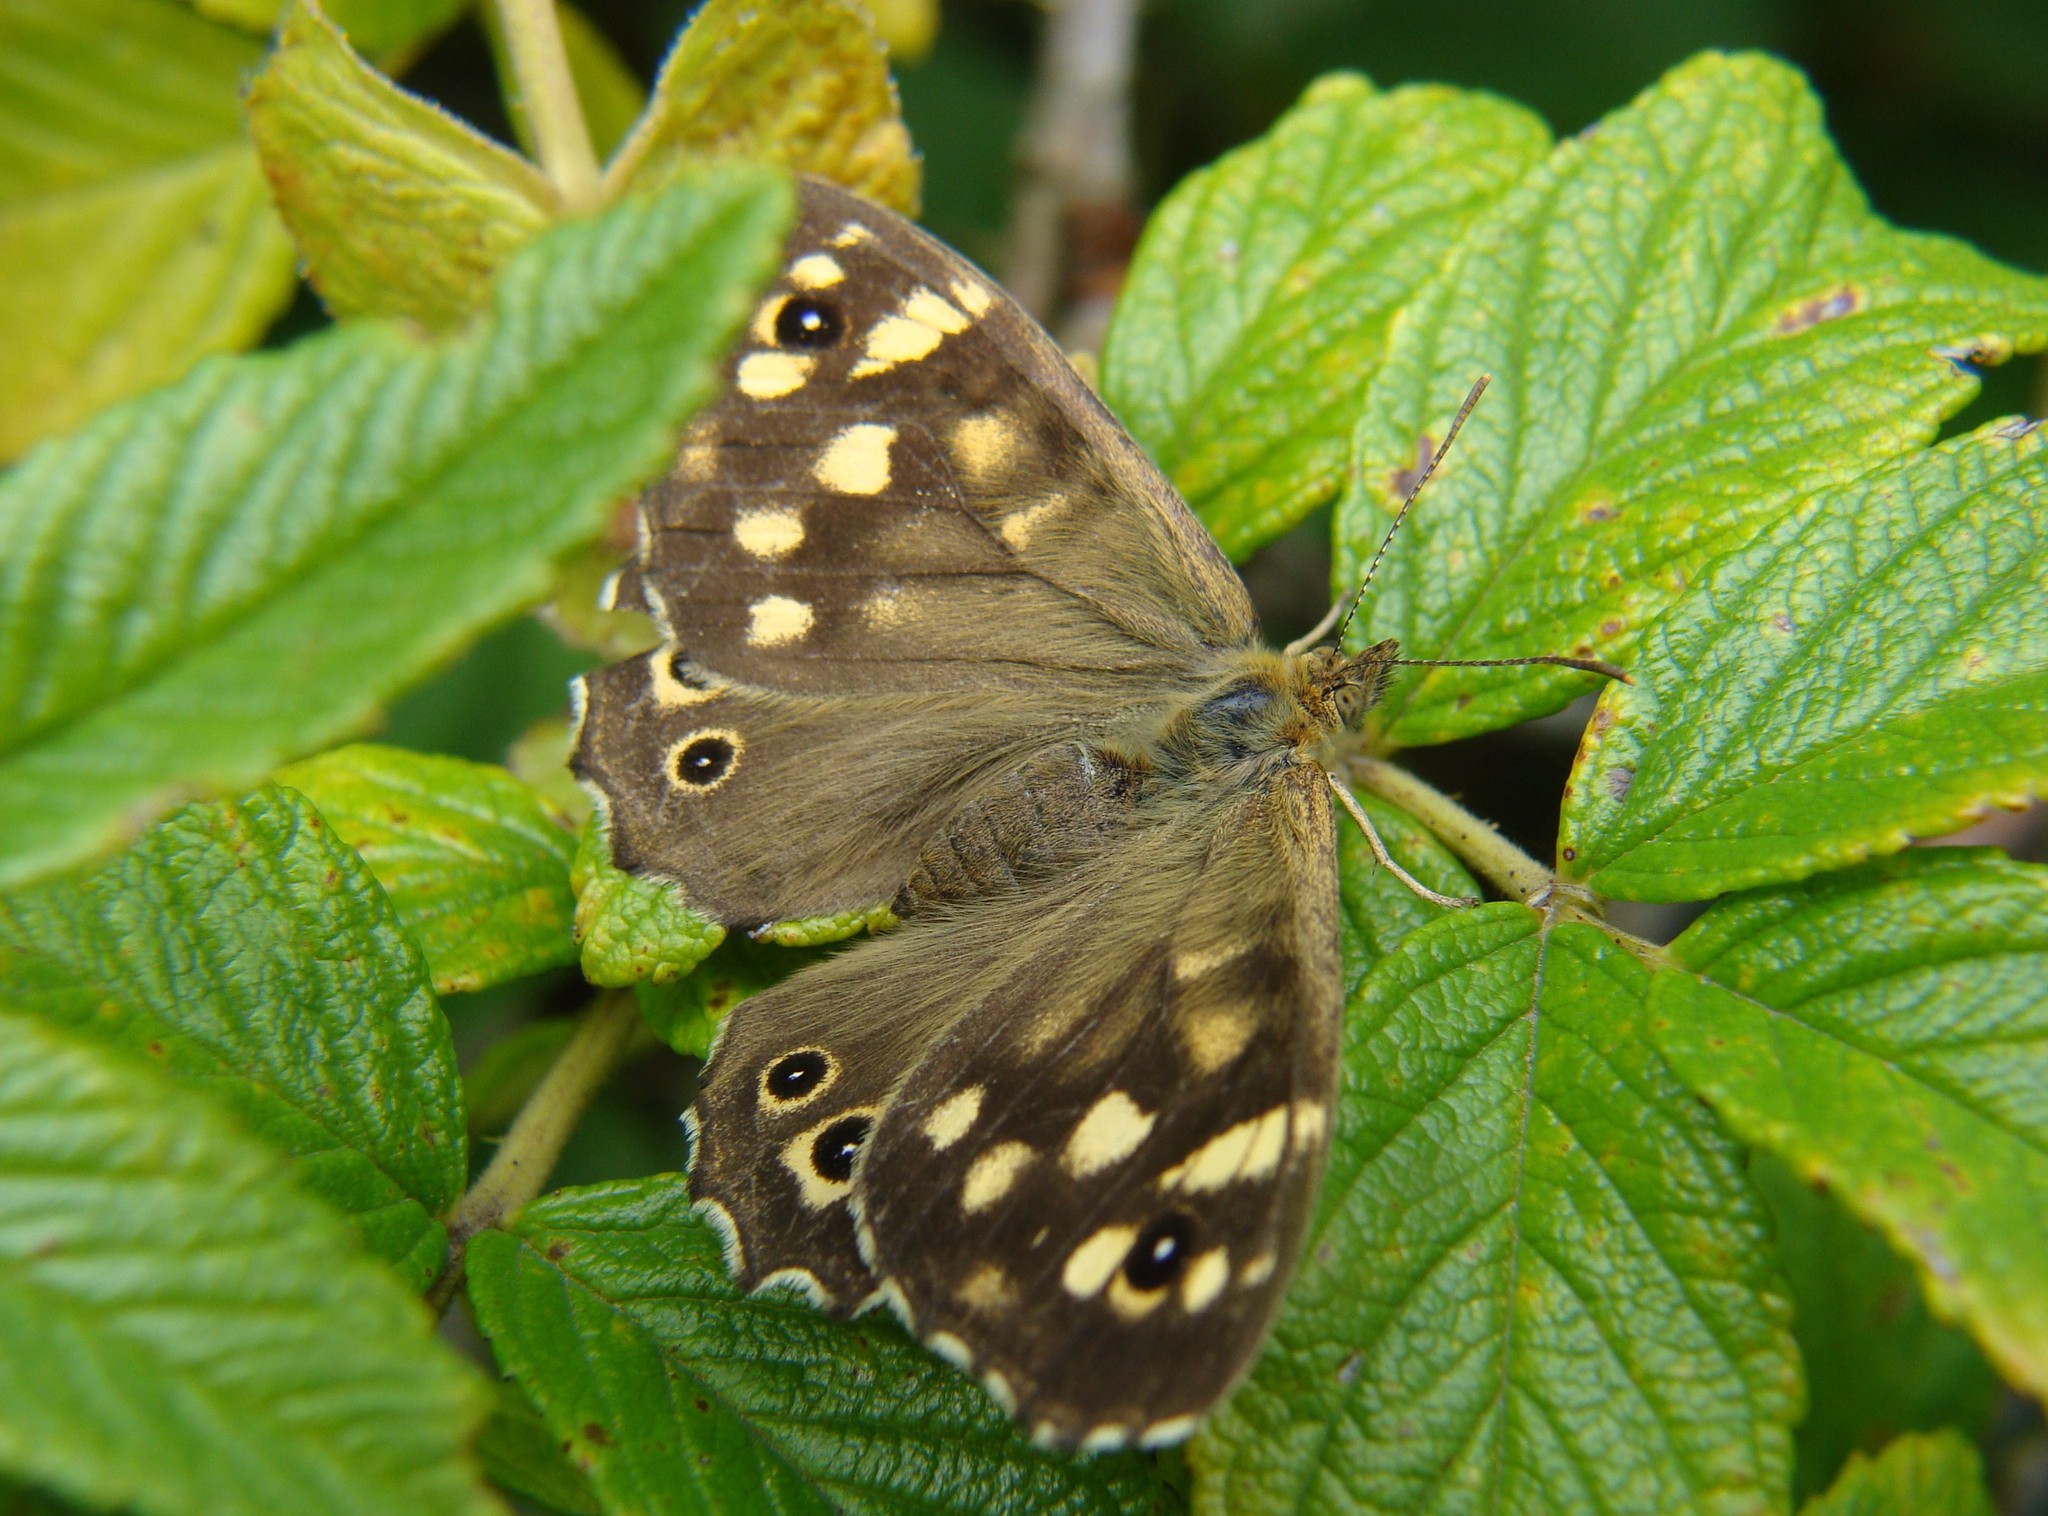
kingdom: Animalia
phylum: Arthropoda
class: Insecta
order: Lepidoptera
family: Nymphalidae
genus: Pararge
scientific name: Pararge aegeria
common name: Speckled wood
